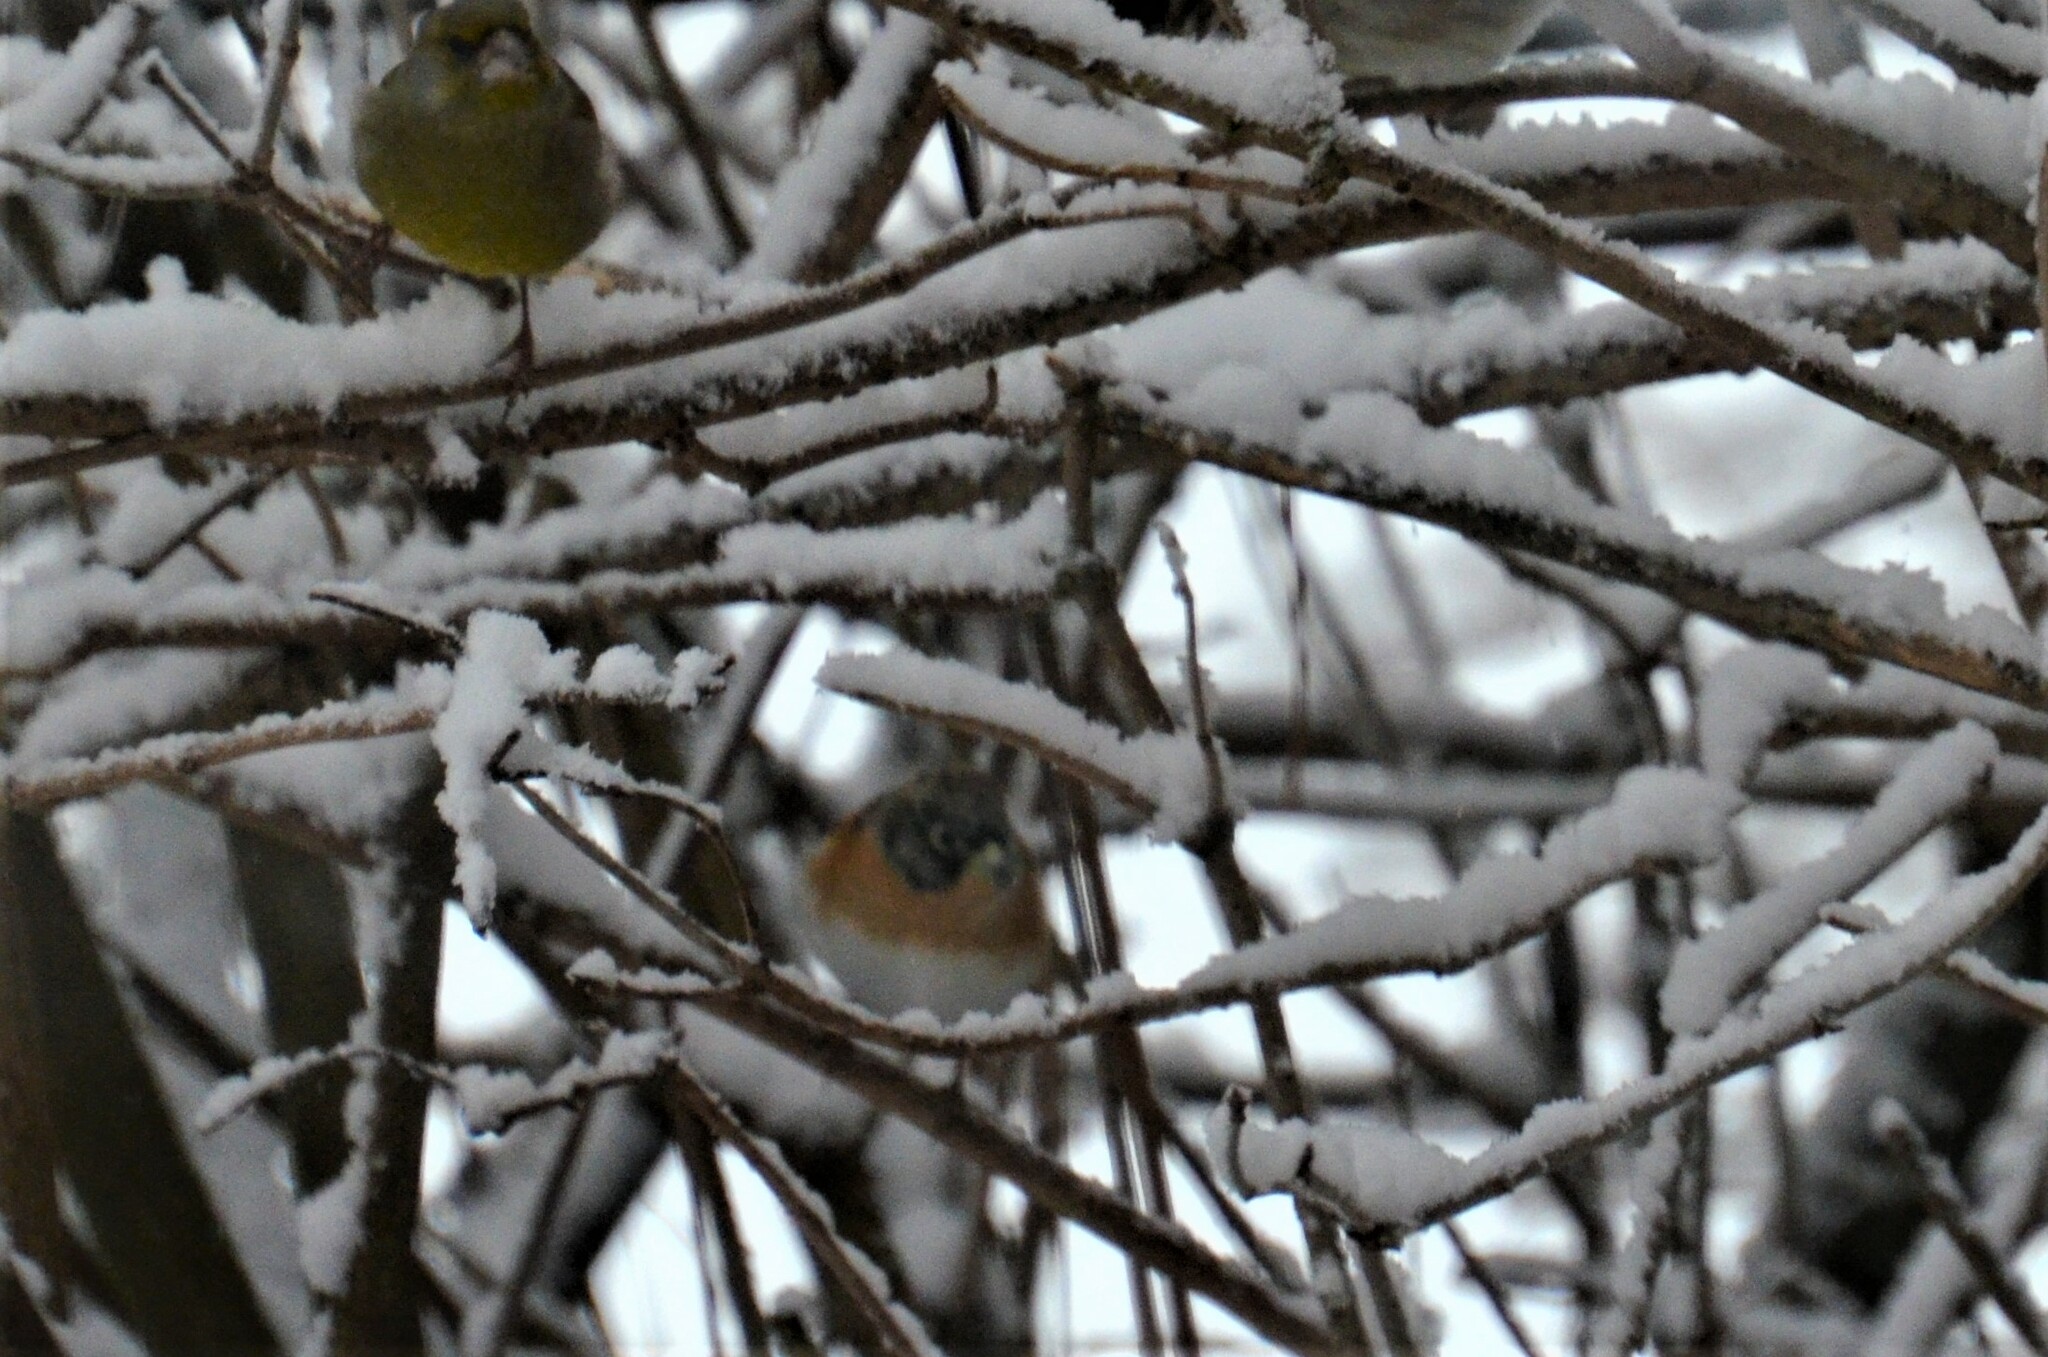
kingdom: Animalia
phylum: Chordata
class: Aves
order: Passeriformes
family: Fringillidae
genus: Fringilla
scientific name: Fringilla montifringilla
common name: Brambling
